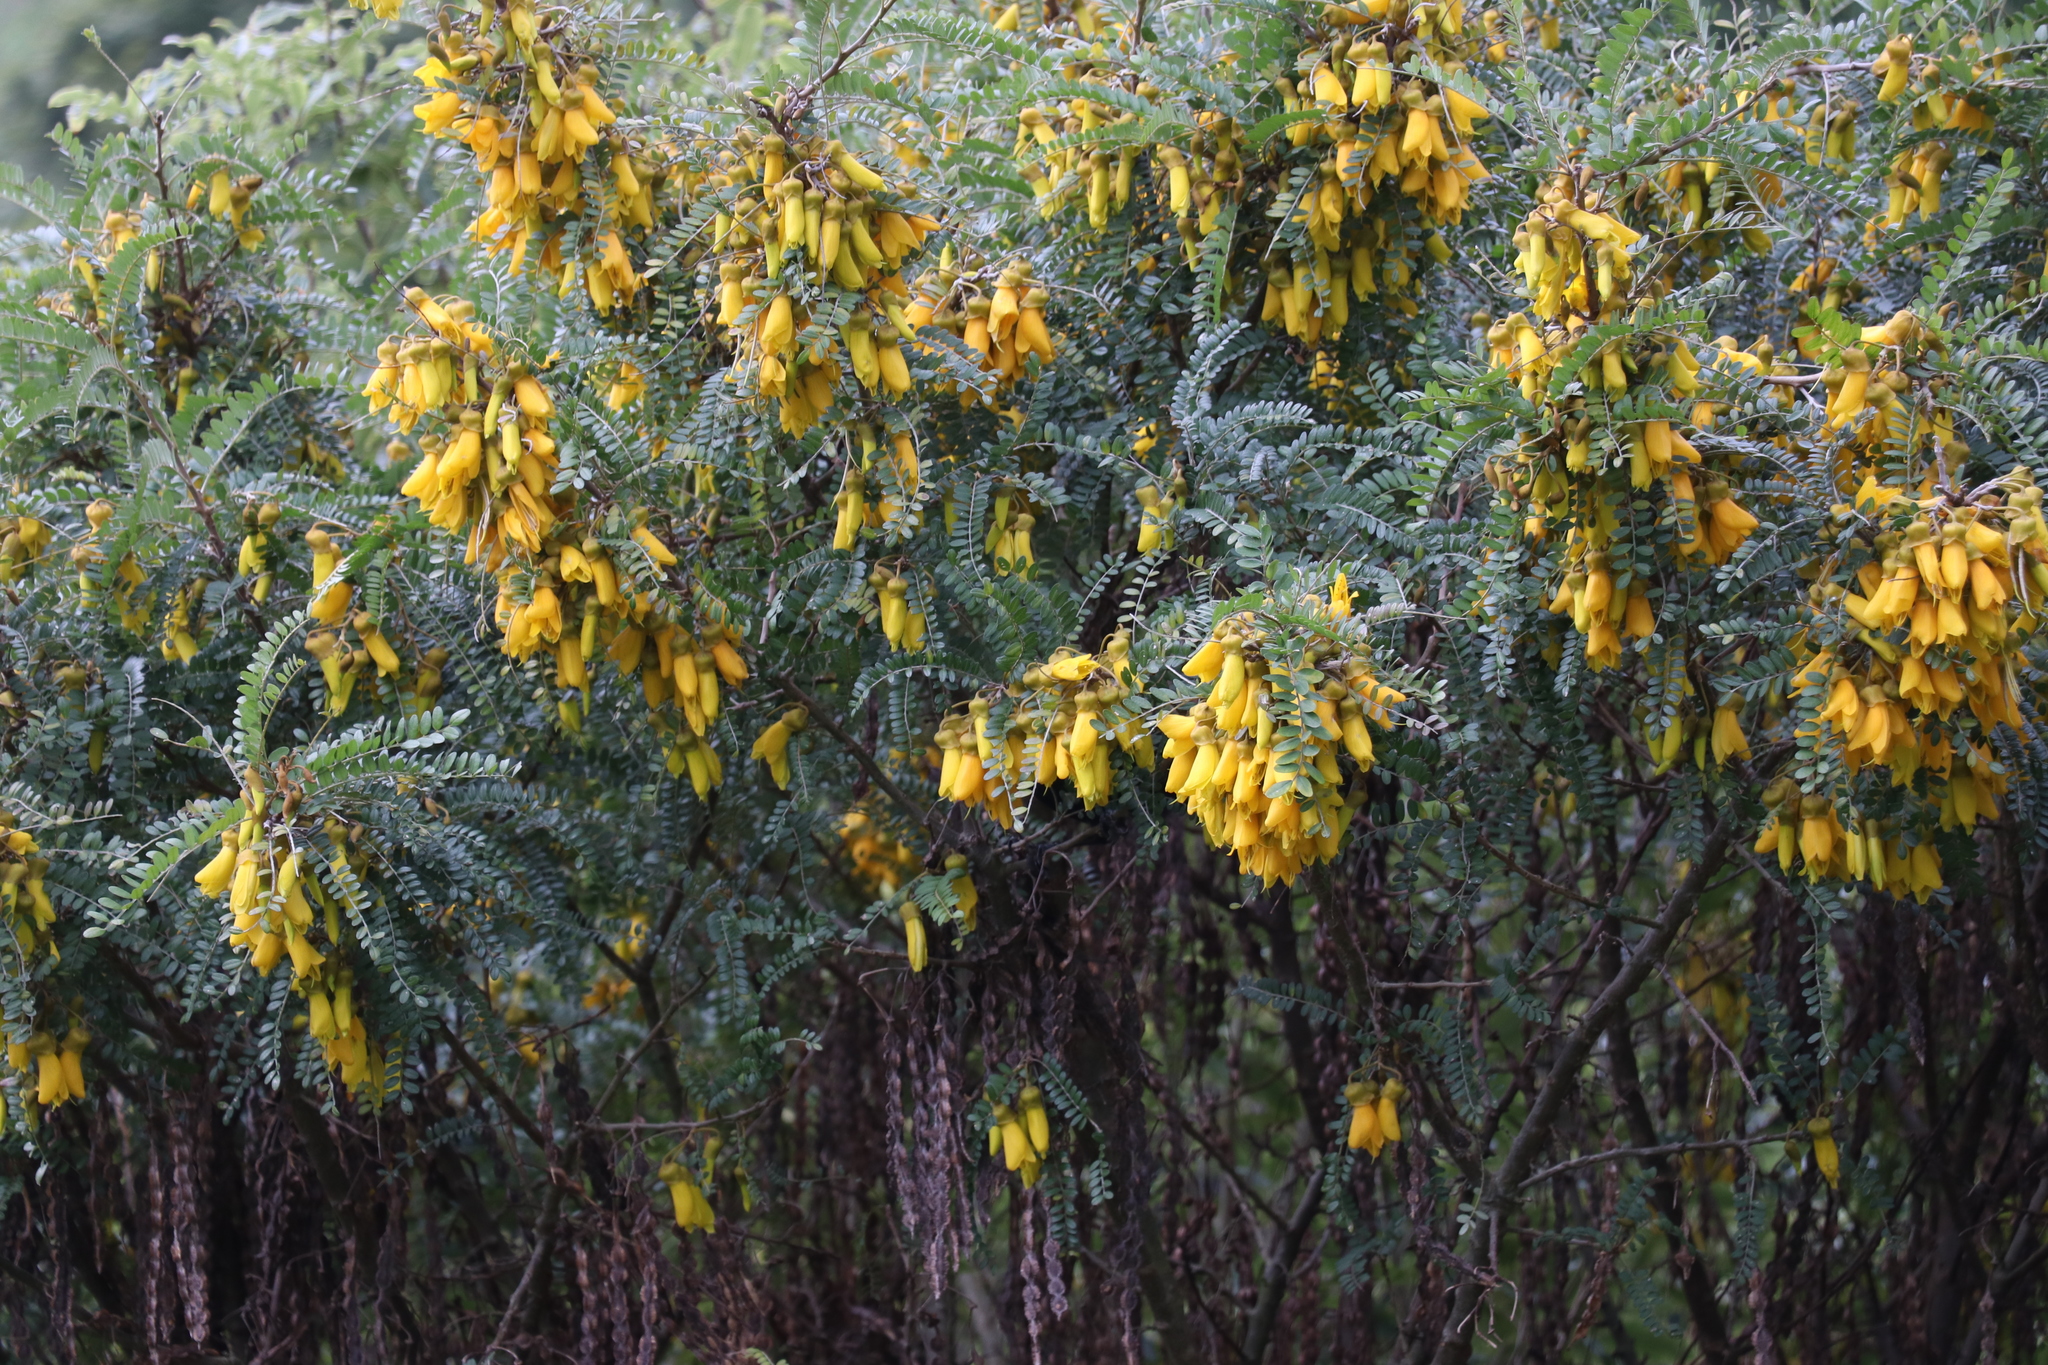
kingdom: Plantae
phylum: Tracheophyta
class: Magnoliopsida
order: Fabales
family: Fabaceae
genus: Sophora
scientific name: Sophora microphylla
